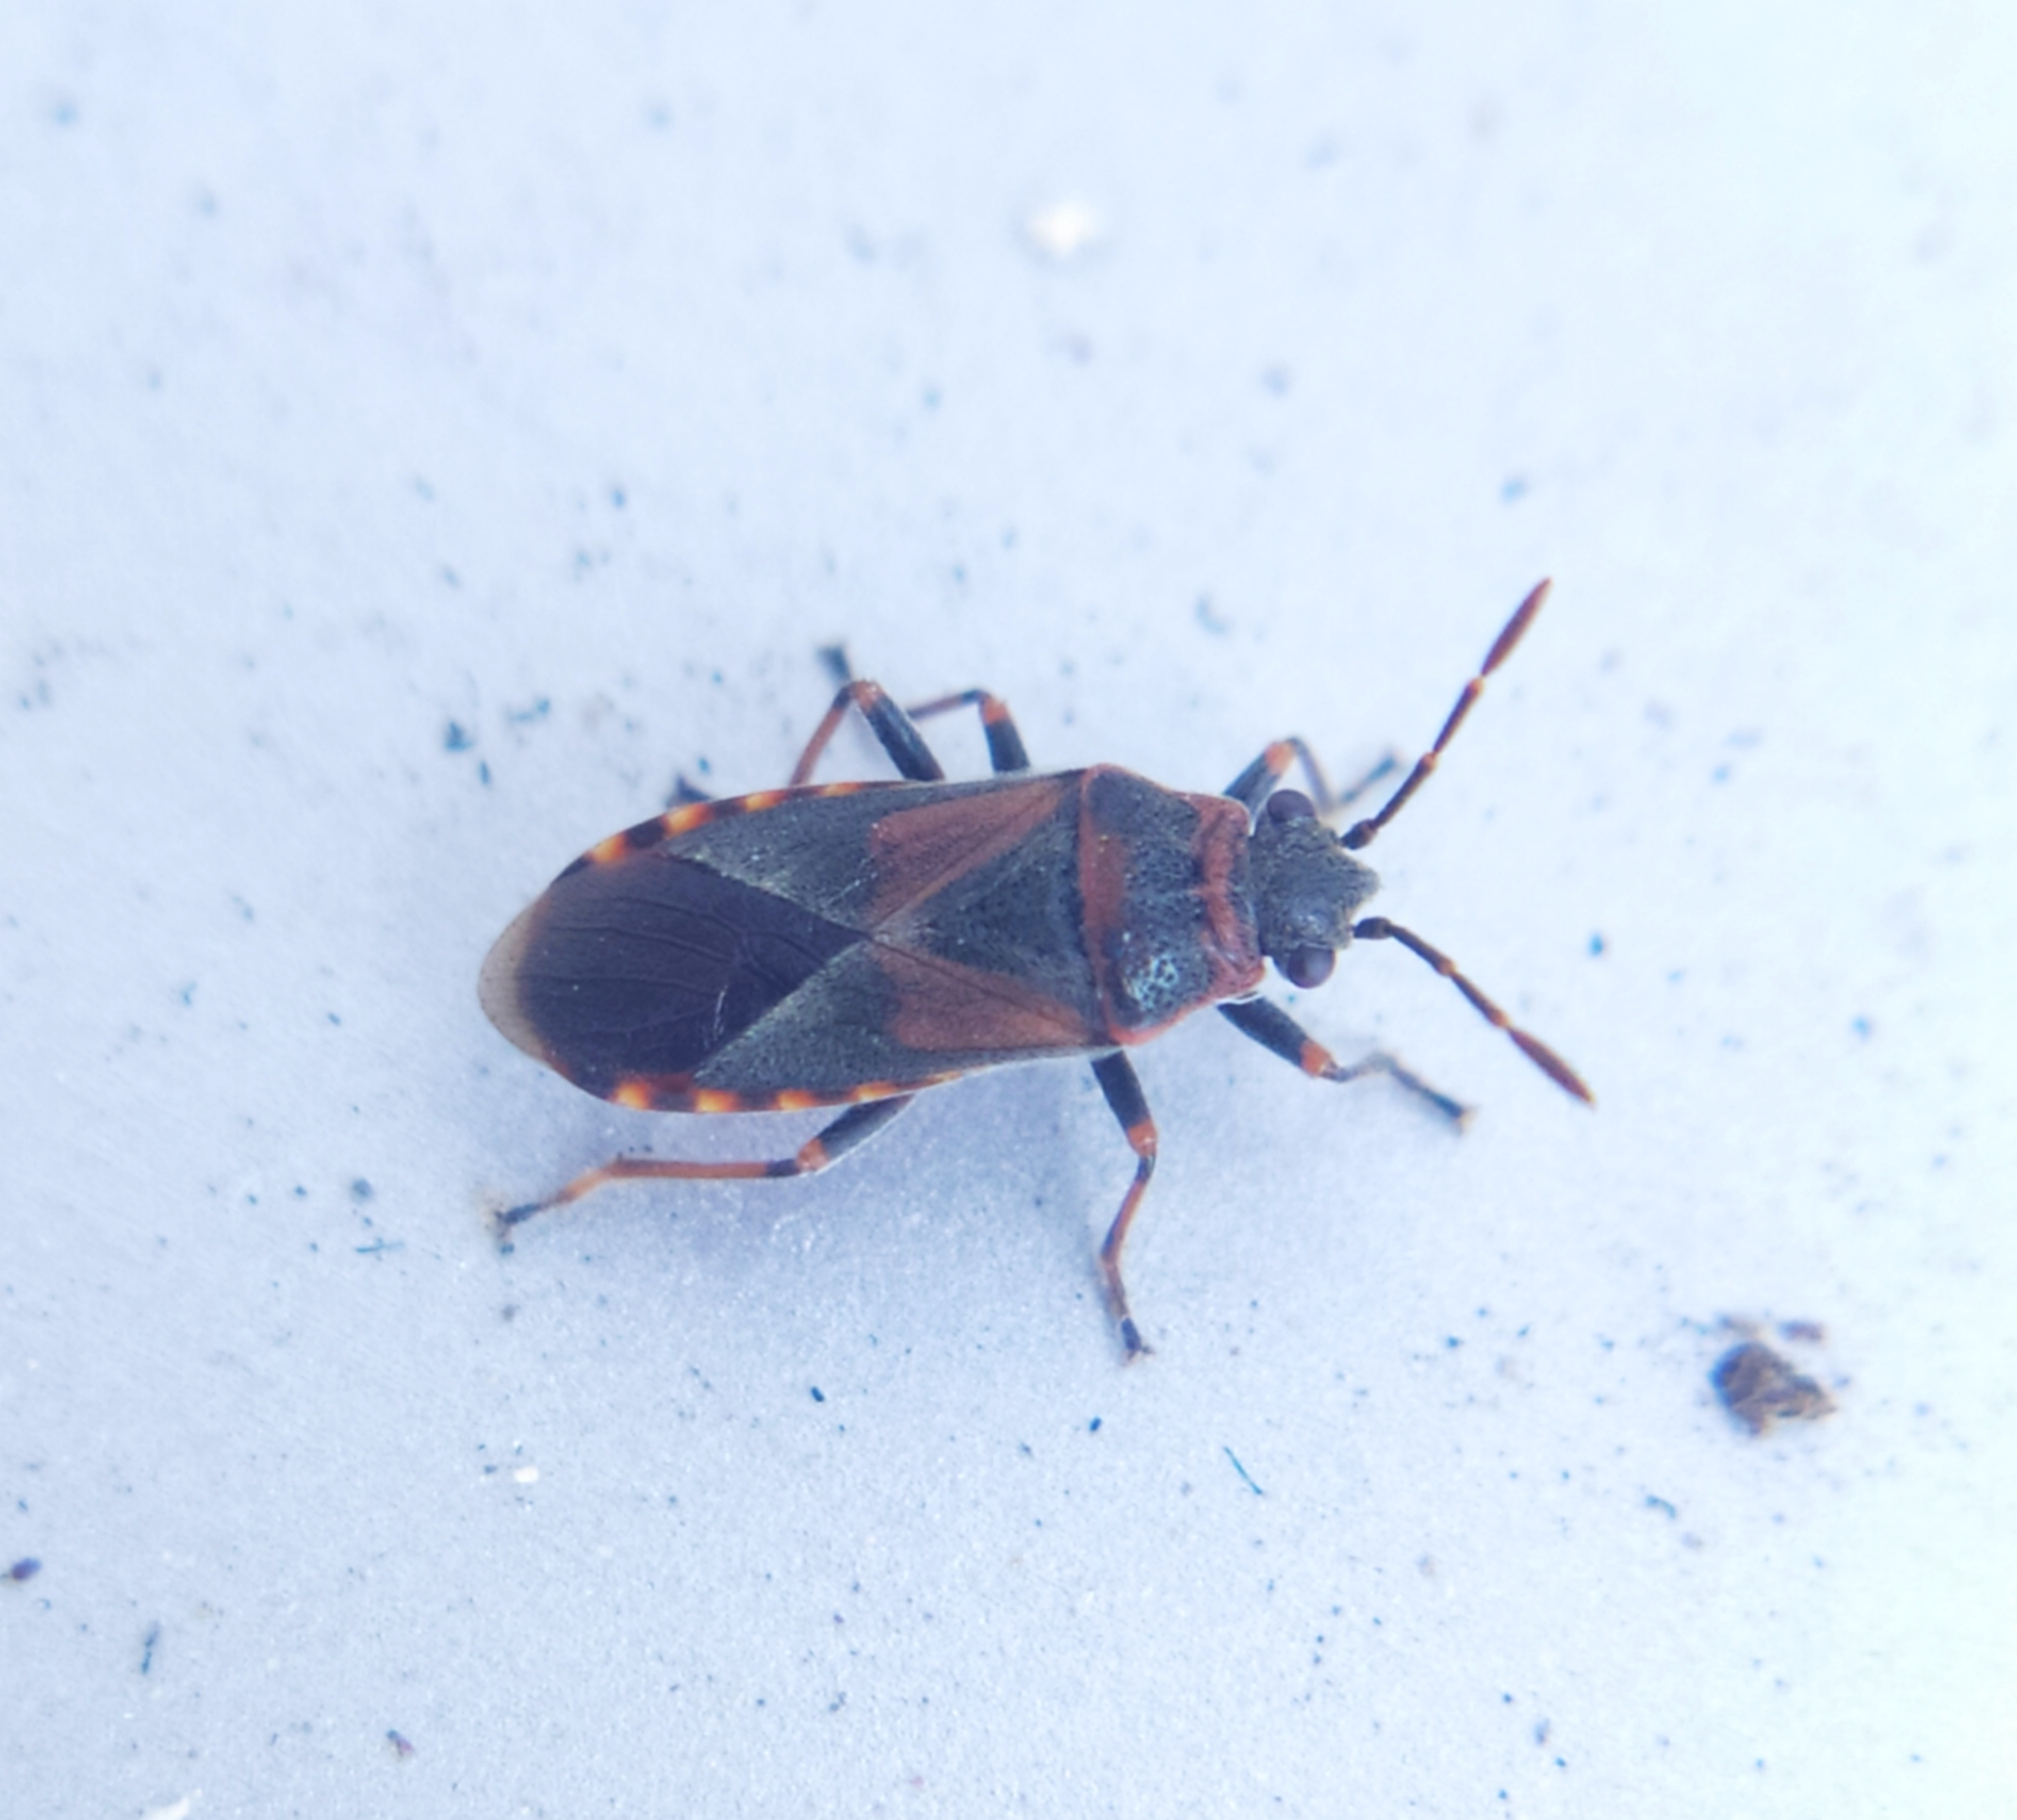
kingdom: Animalia
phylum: Arthropoda
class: Insecta
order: Hemiptera
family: Lygaeidae
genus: Arocatus
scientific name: Arocatus melanocephalus
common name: Lygaeid bug
